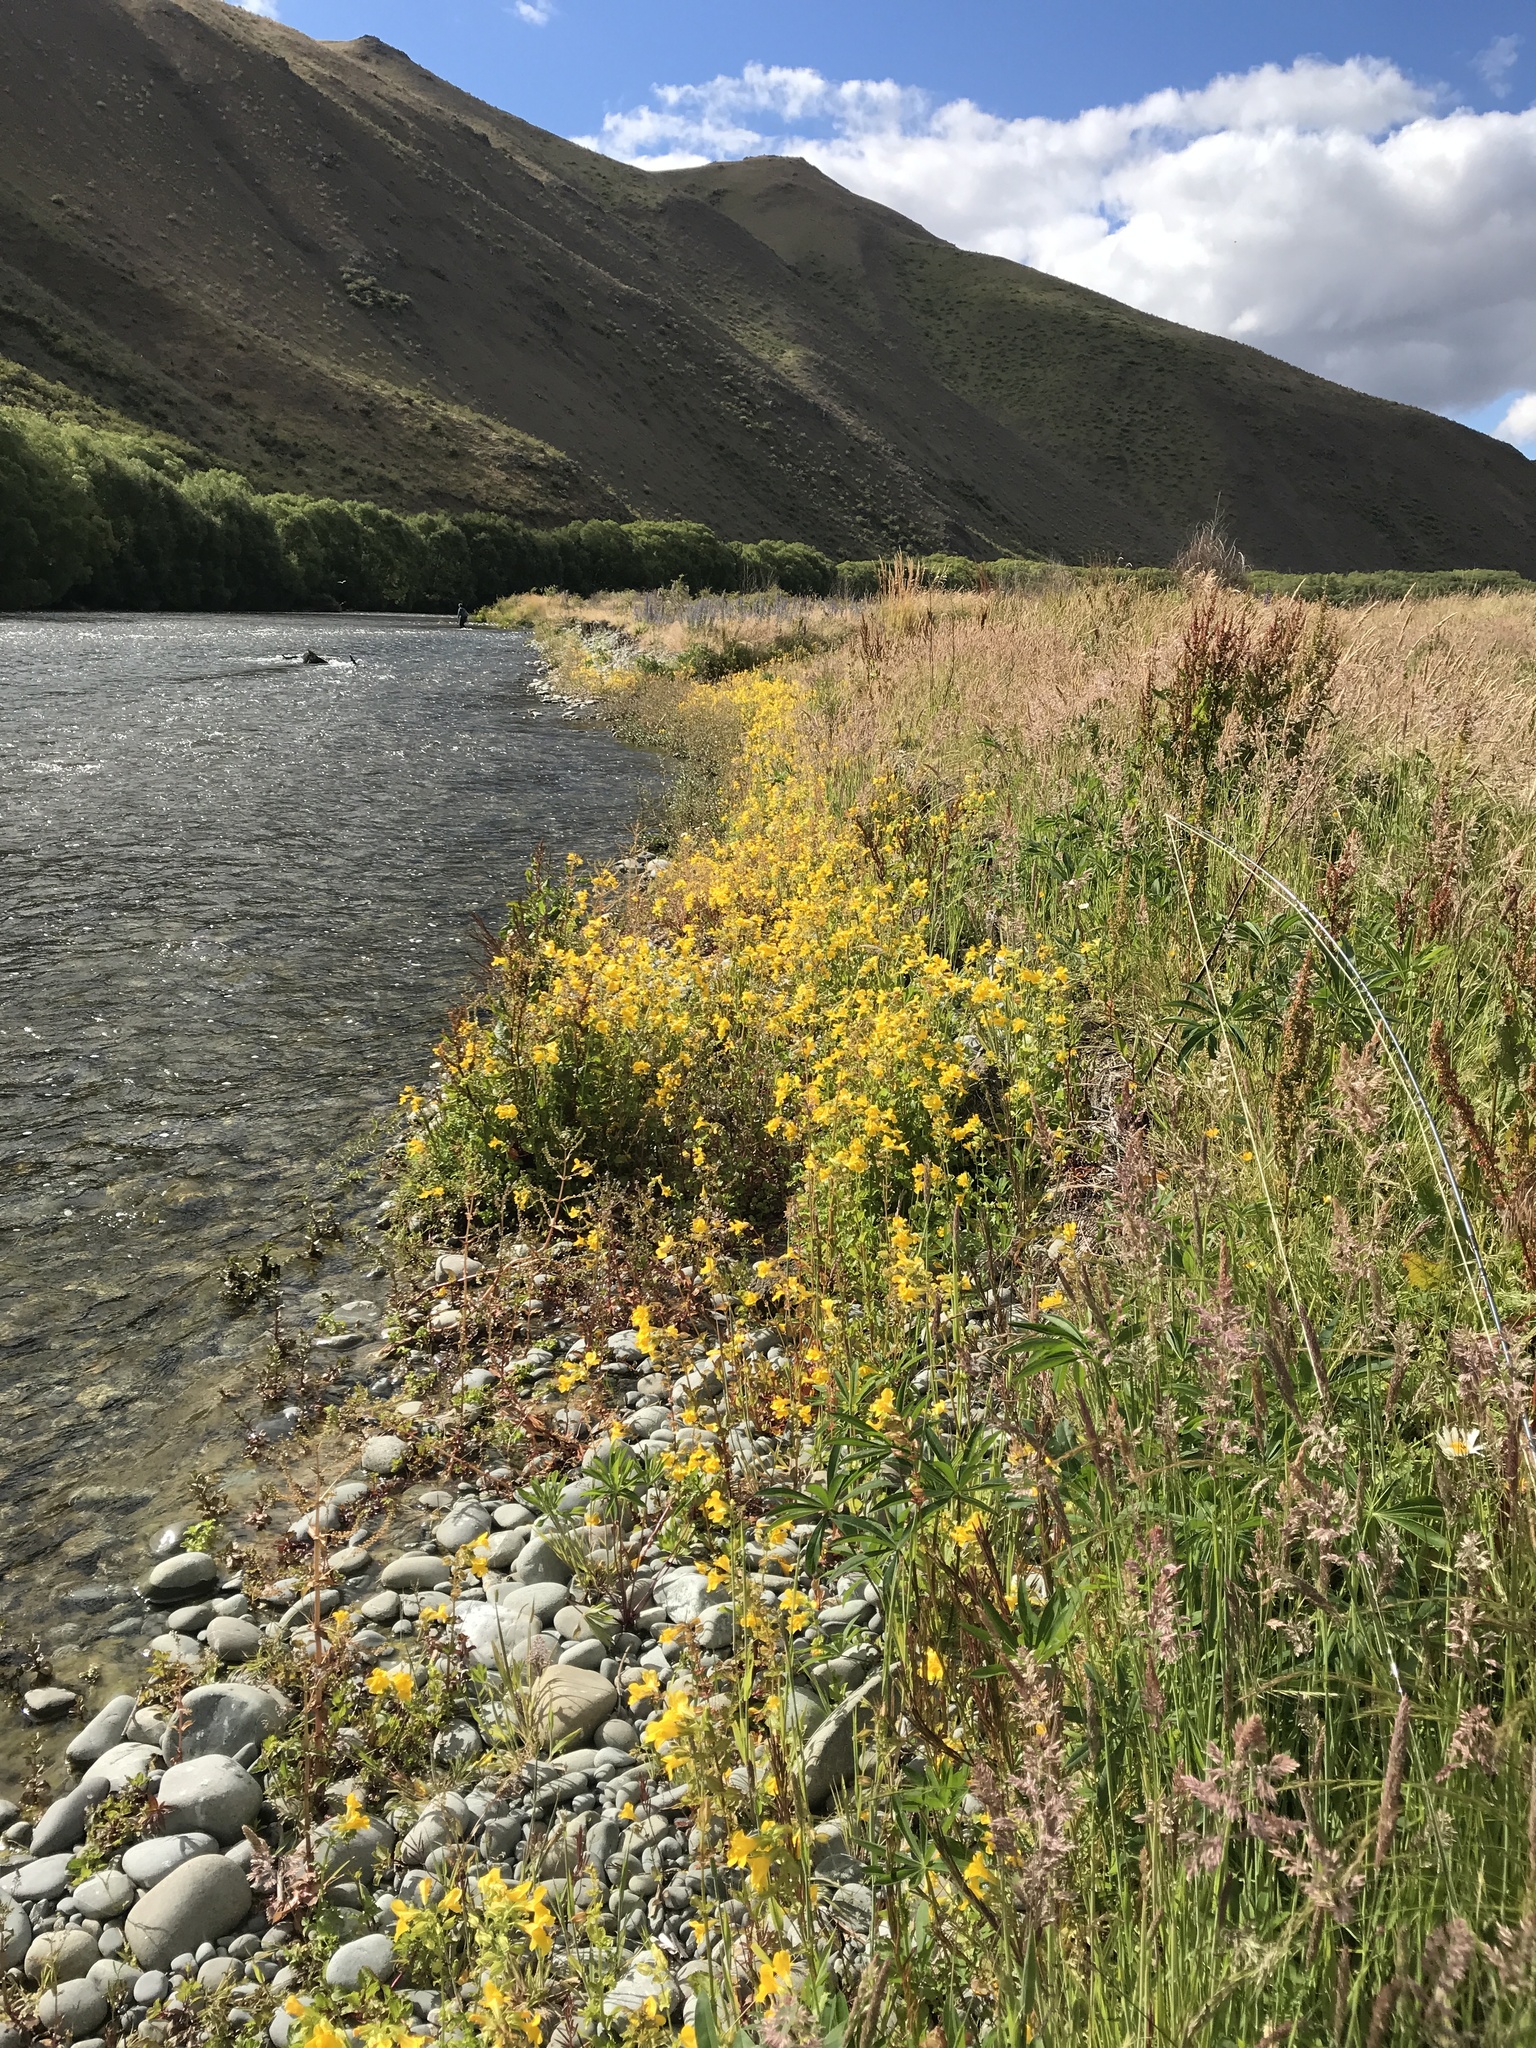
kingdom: Plantae
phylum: Tracheophyta
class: Magnoliopsida
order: Lamiales
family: Phrymaceae
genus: Erythranthe
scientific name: Erythranthe guttata
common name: Monkeyflower
